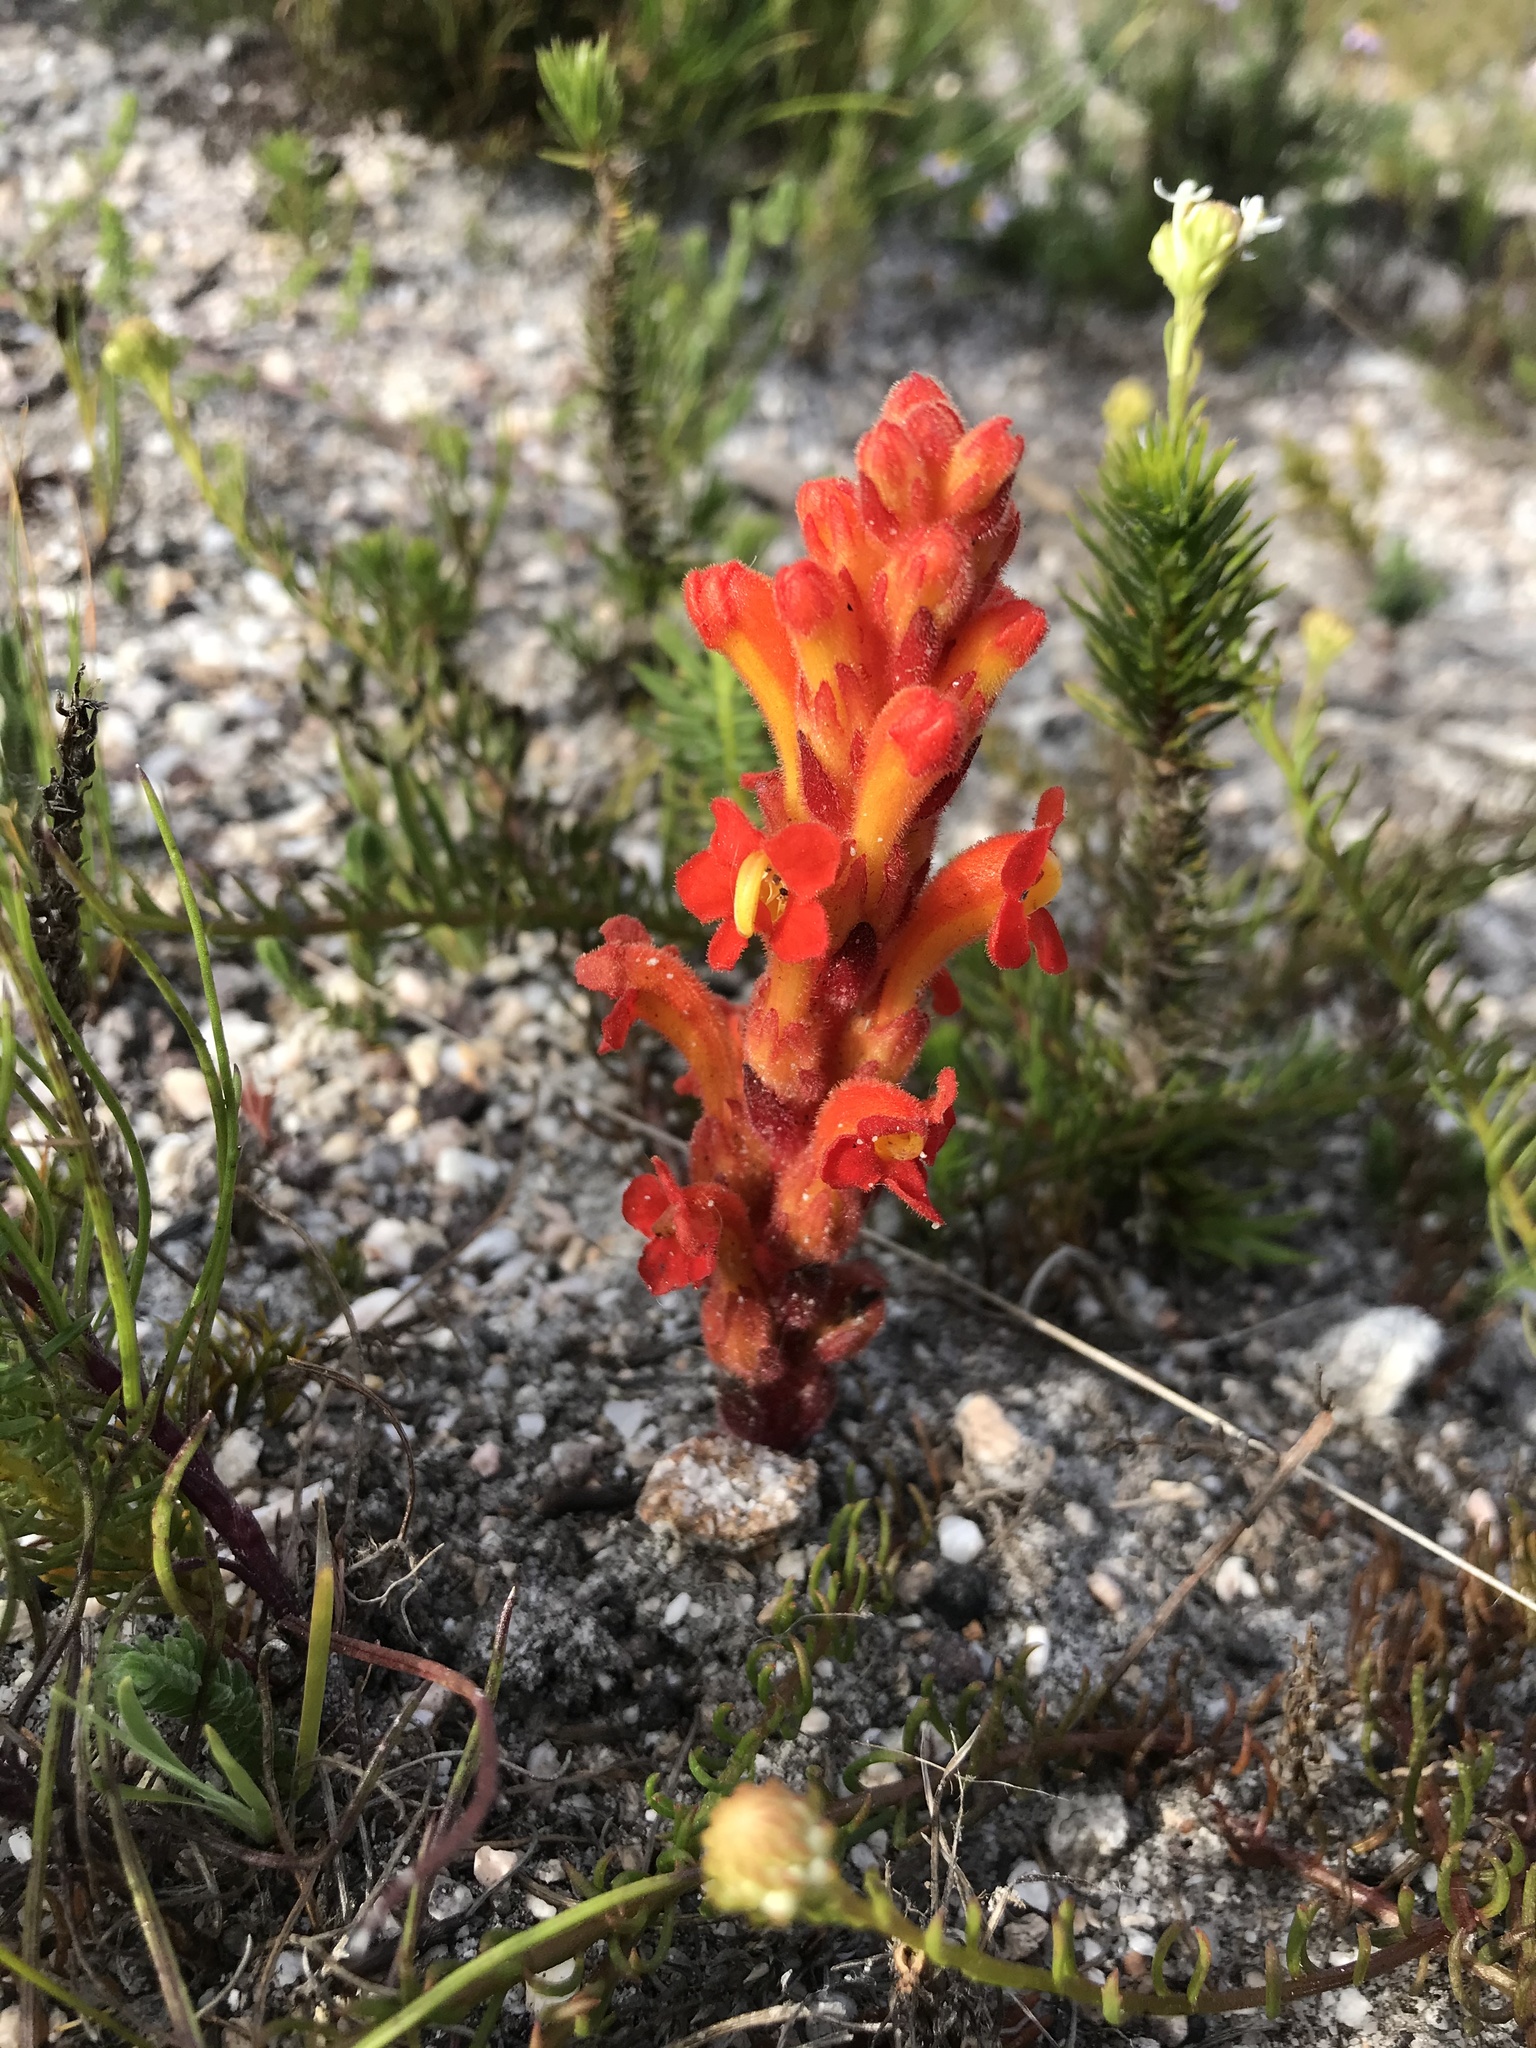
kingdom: Plantae
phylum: Tracheophyta
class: Magnoliopsida
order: Lamiales
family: Orobanchaceae
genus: Harveya
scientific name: Harveya squamosa
